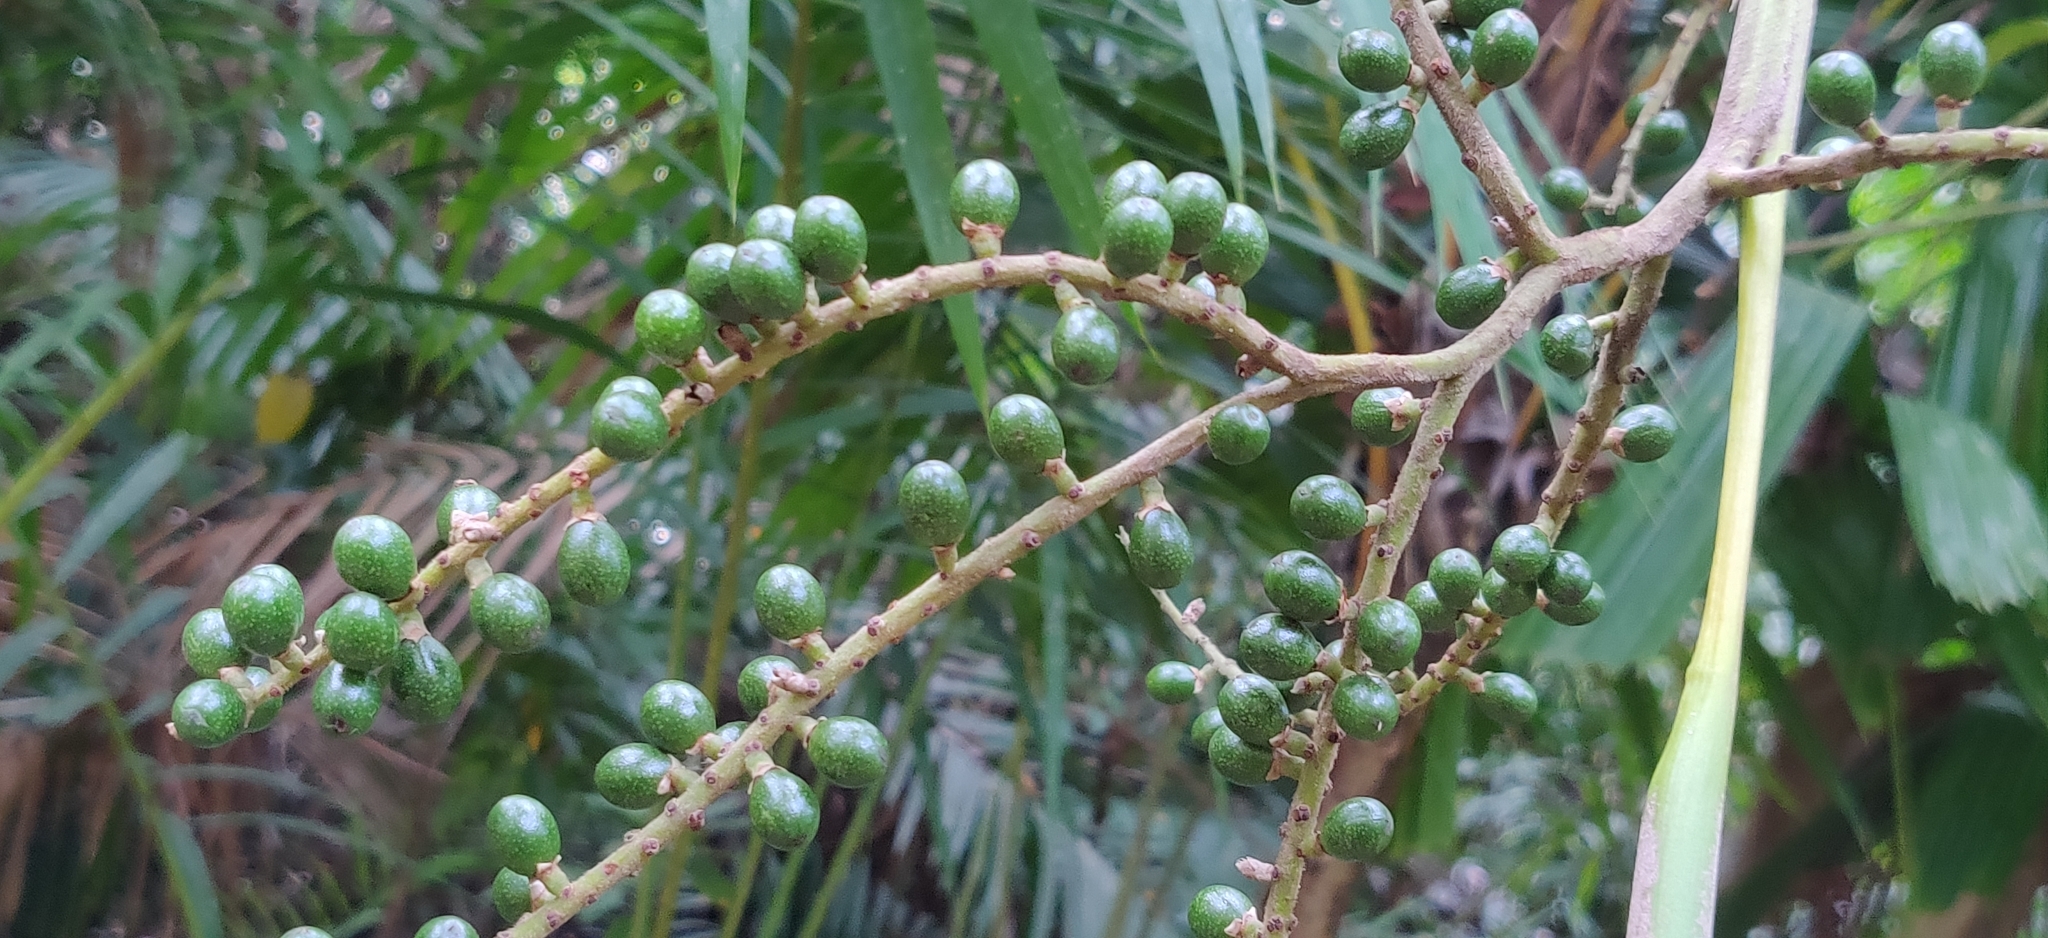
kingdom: Plantae
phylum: Tracheophyta
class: Liliopsida
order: Arecales
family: Arecaceae
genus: Licuala
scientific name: Licuala peltata
